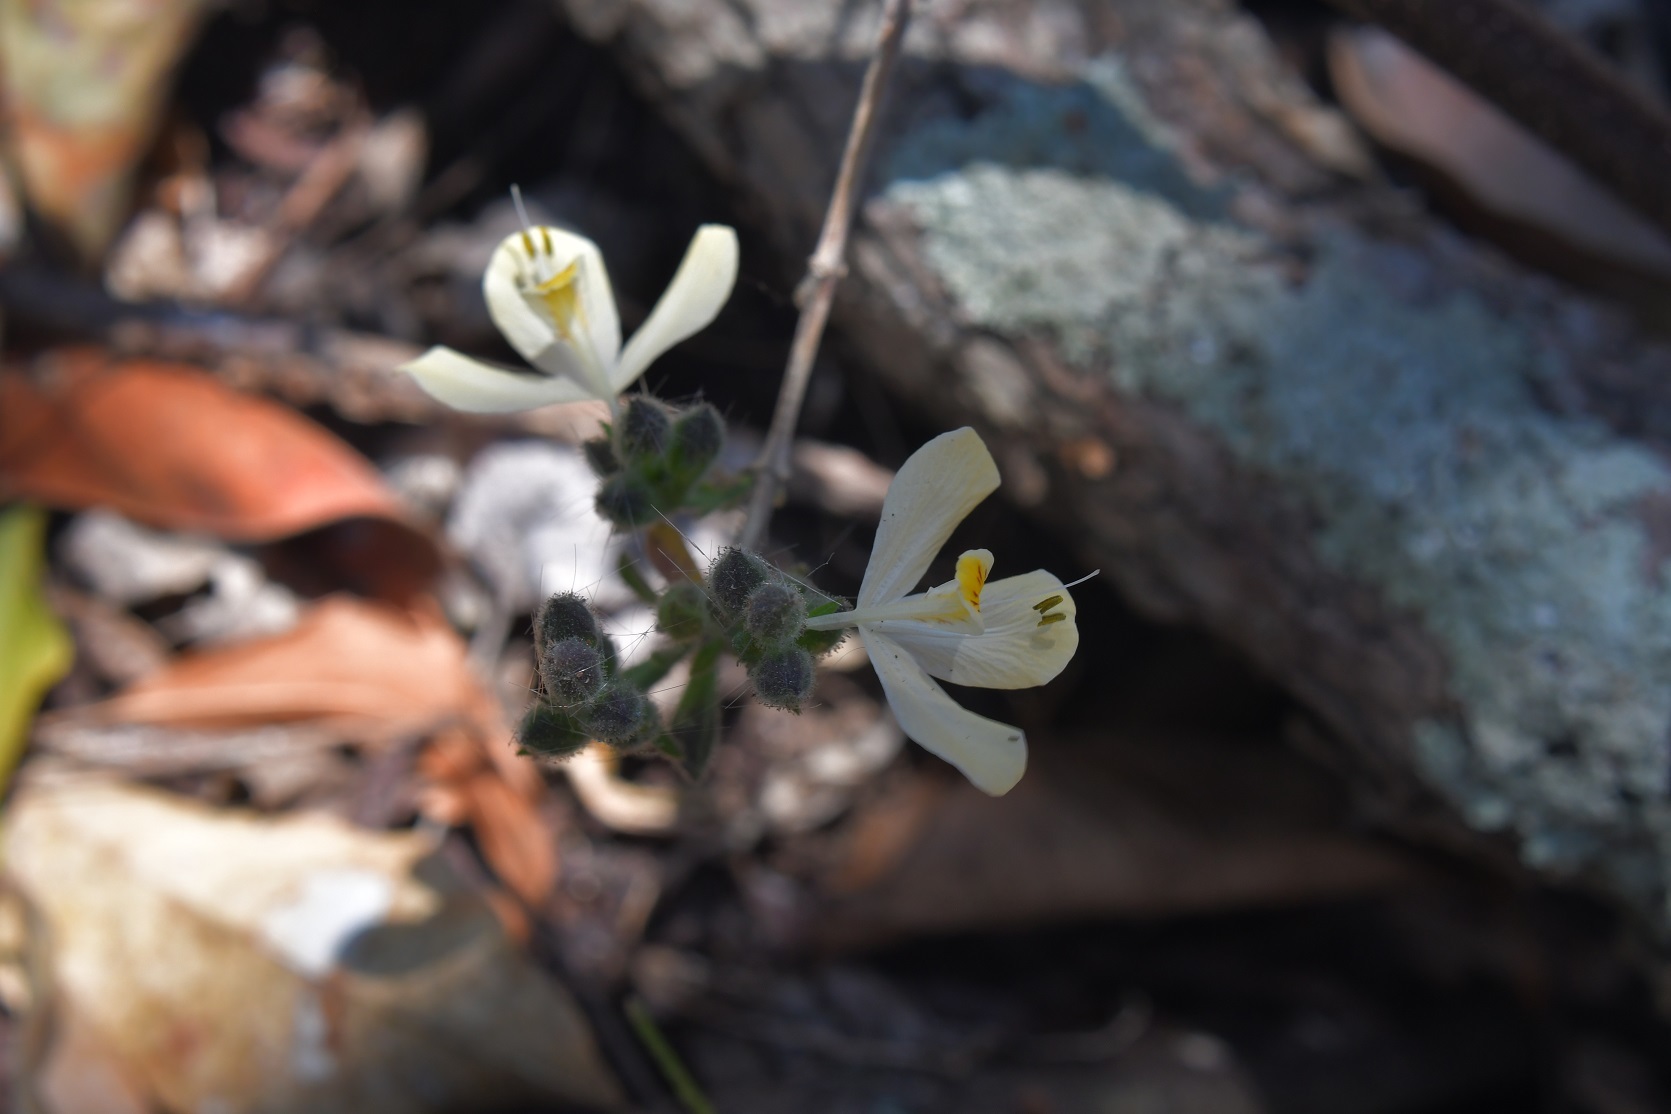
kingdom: Plantae
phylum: Tracheophyta
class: Magnoliopsida
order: Lamiales
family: Acanthaceae
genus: Henrya
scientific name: Henrya insularis
